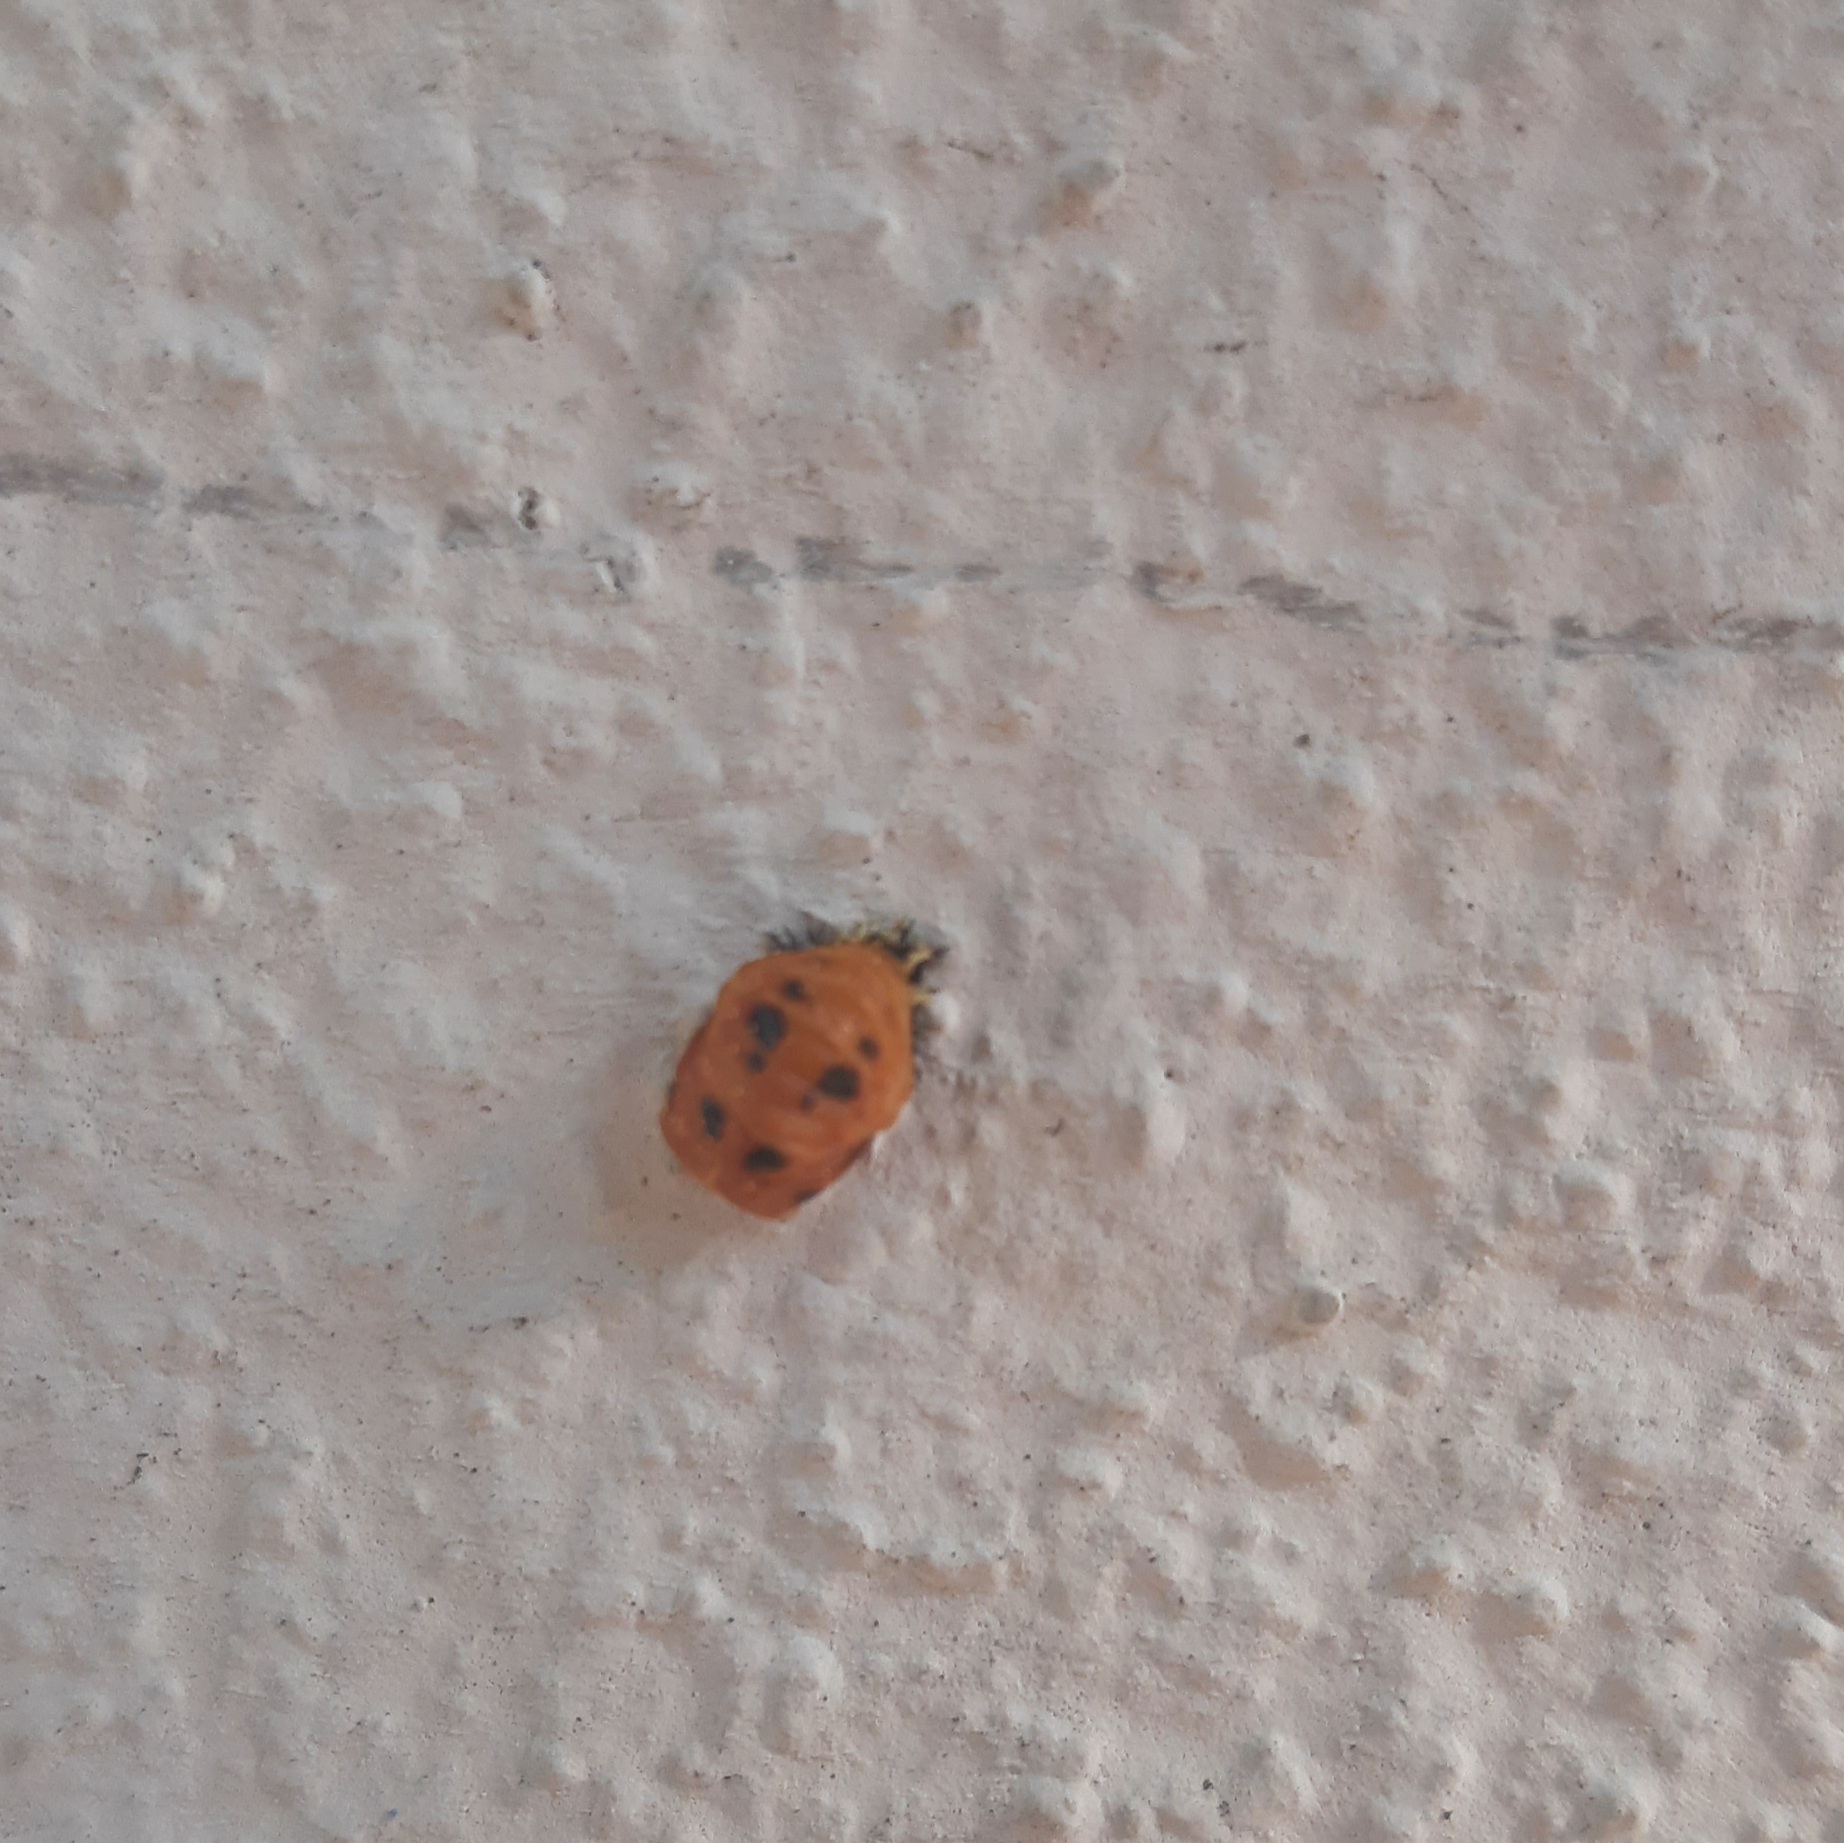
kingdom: Animalia
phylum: Arthropoda
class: Insecta
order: Coleoptera
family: Coccinellidae
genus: Harmonia
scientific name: Harmonia axyridis
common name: Harlequin ladybird
